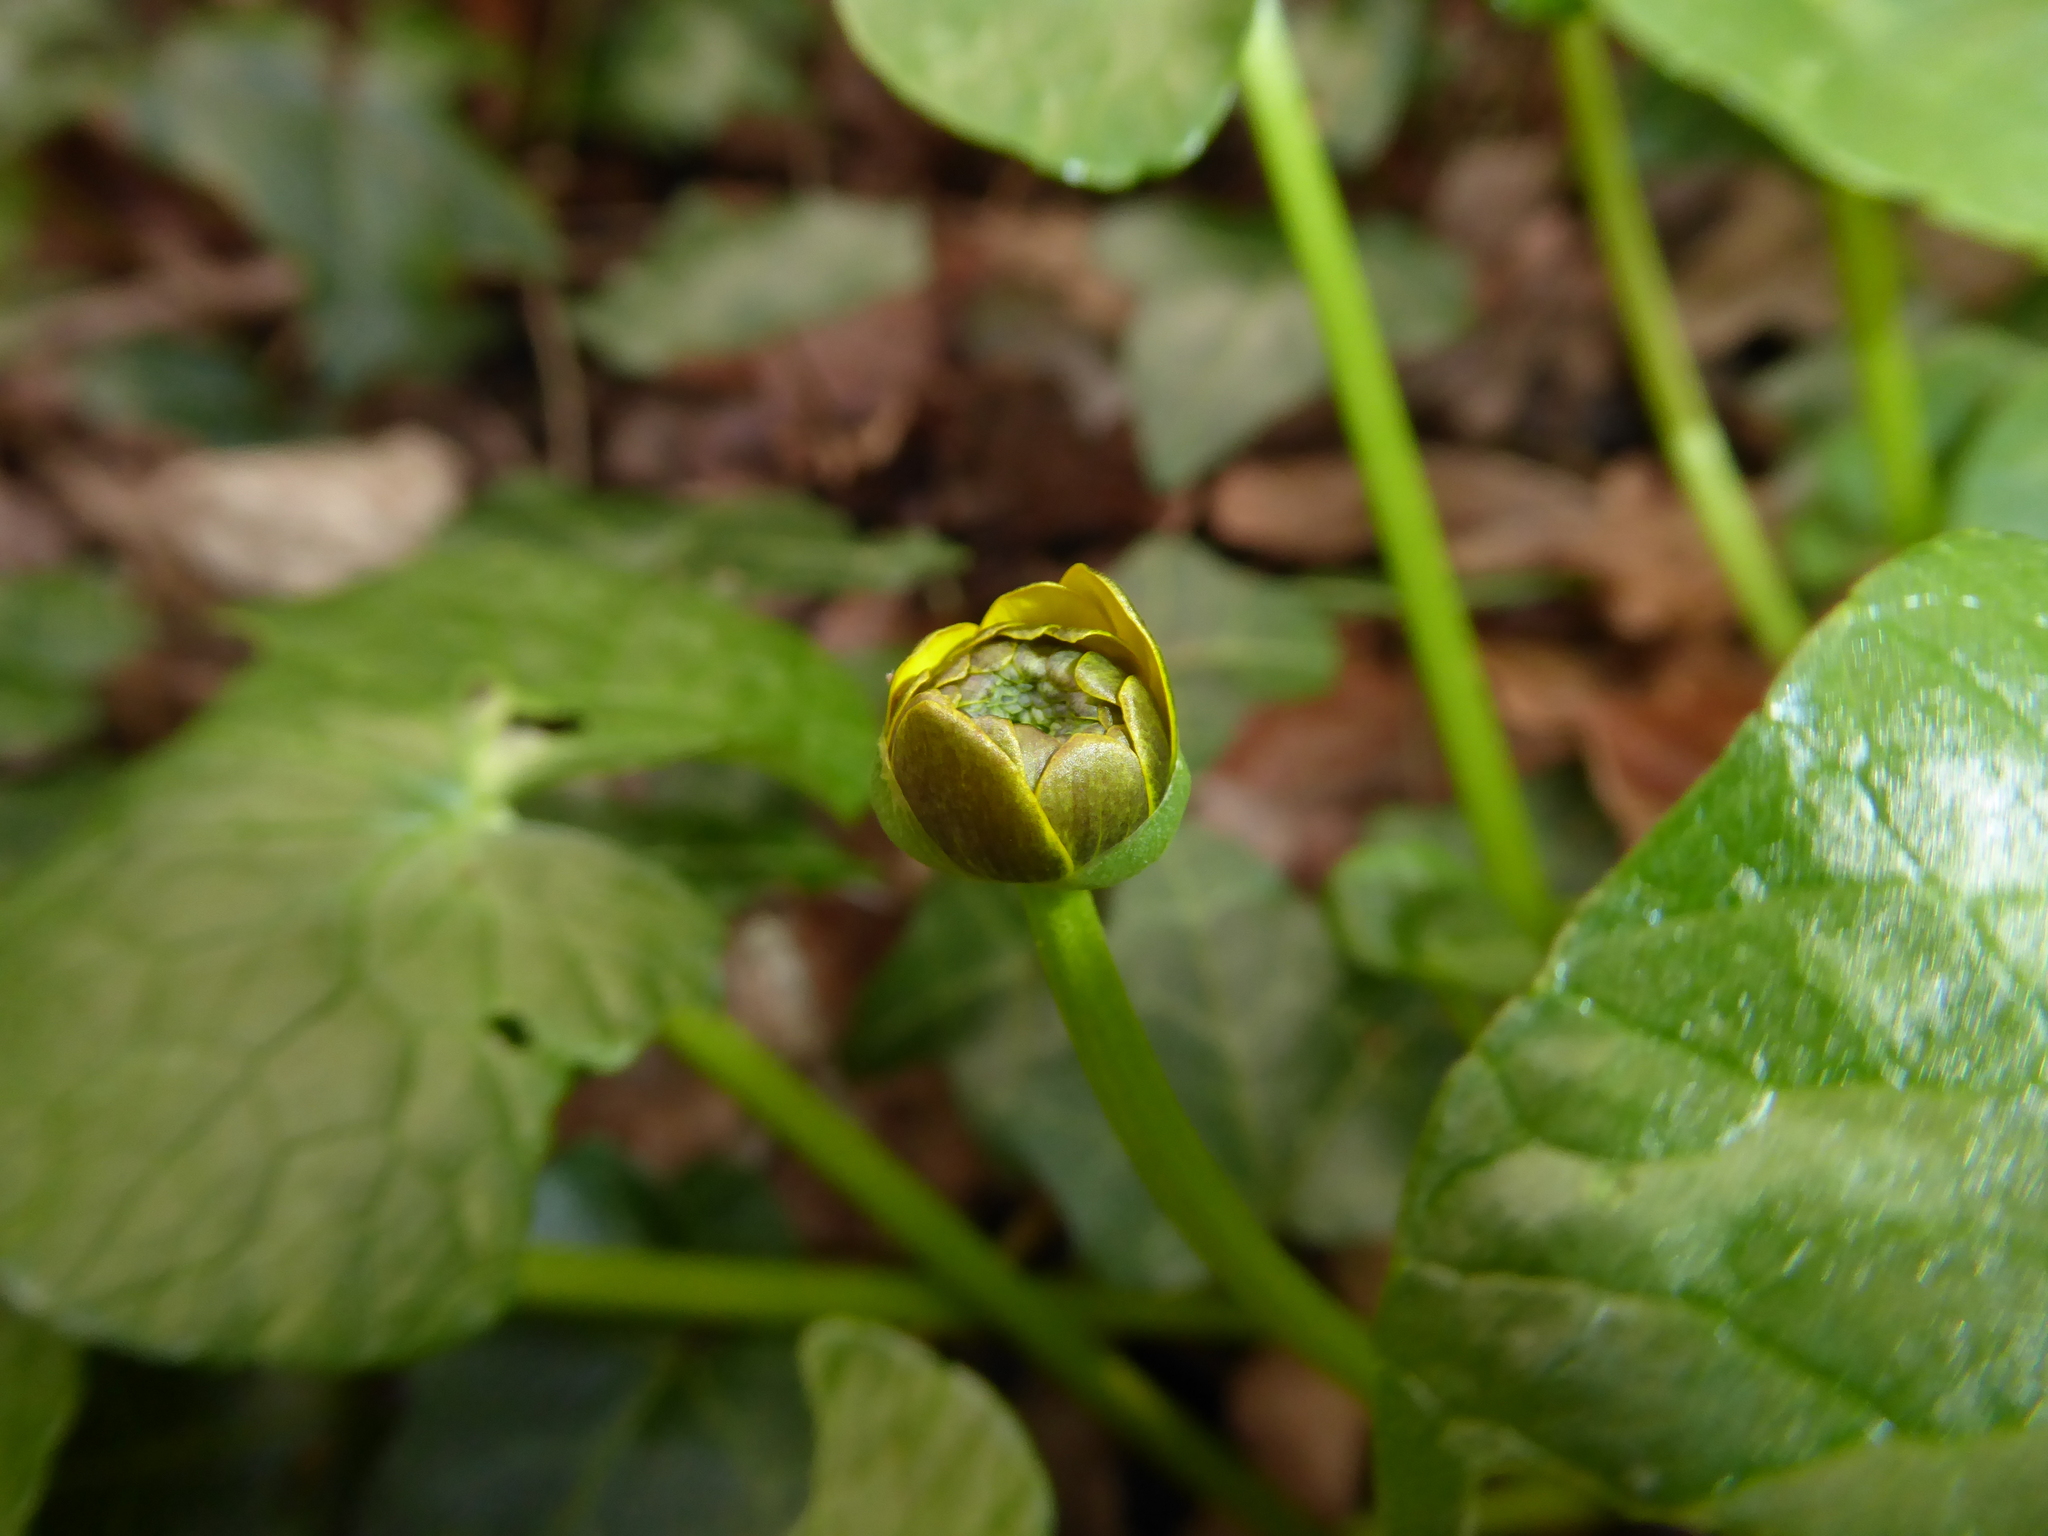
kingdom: Plantae
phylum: Tracheophyta
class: Magnoliopsida
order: Ranunculales
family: Ranunculaceae
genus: Ficaria
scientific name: Ficaria verna
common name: Lesser celandine
